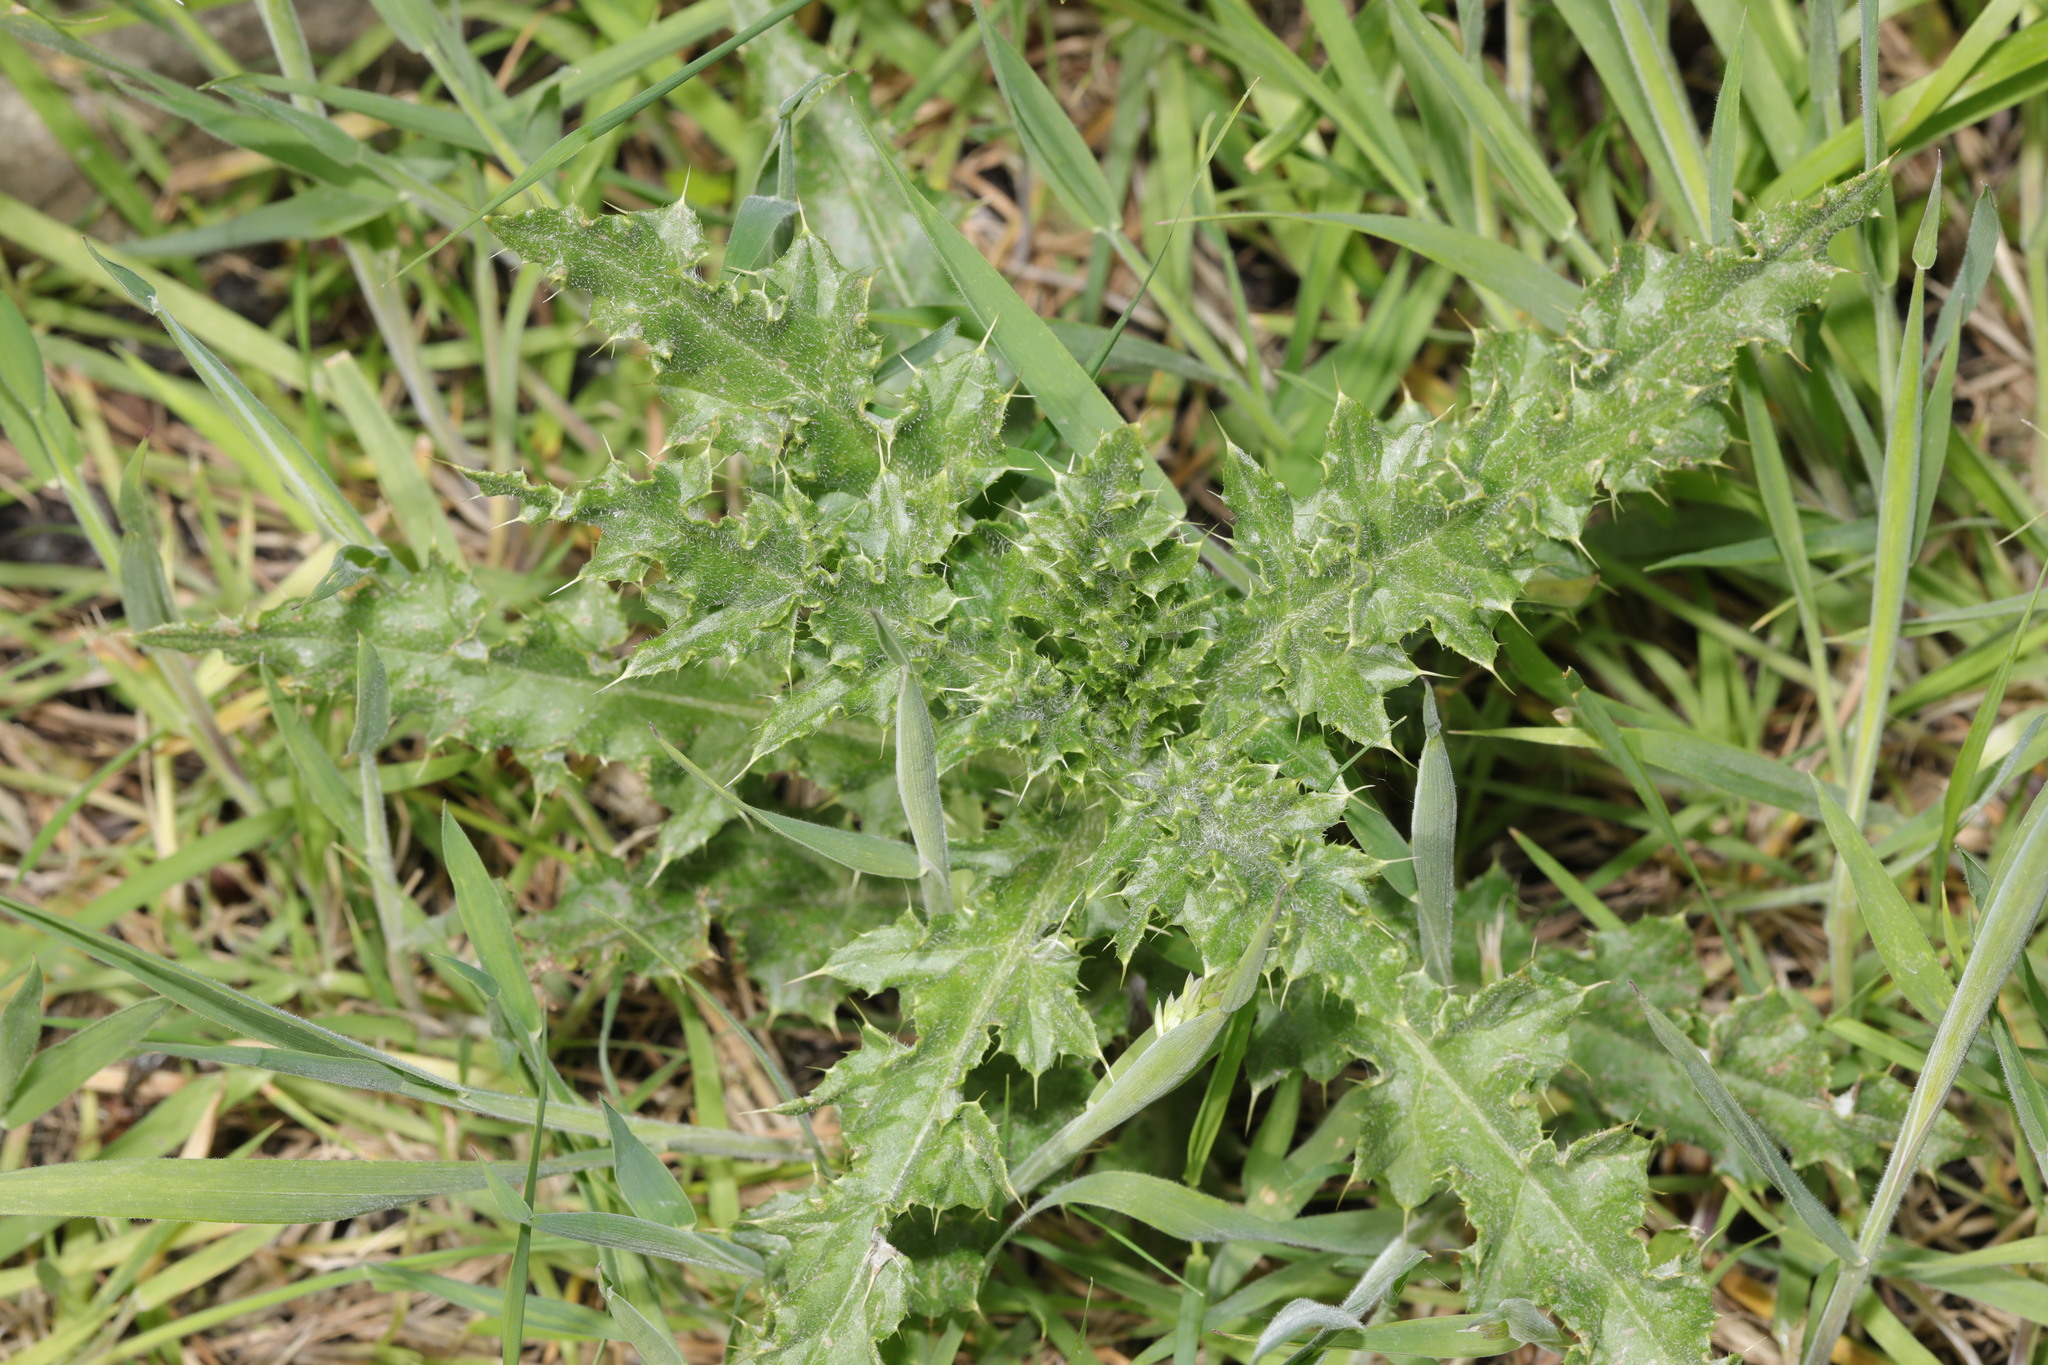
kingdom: Plantae
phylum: Tracheophyta
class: Magnoliopsida
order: Asterales
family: Asteraceae
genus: Cirsium
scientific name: Cirsium arvense
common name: Creeping thistle
